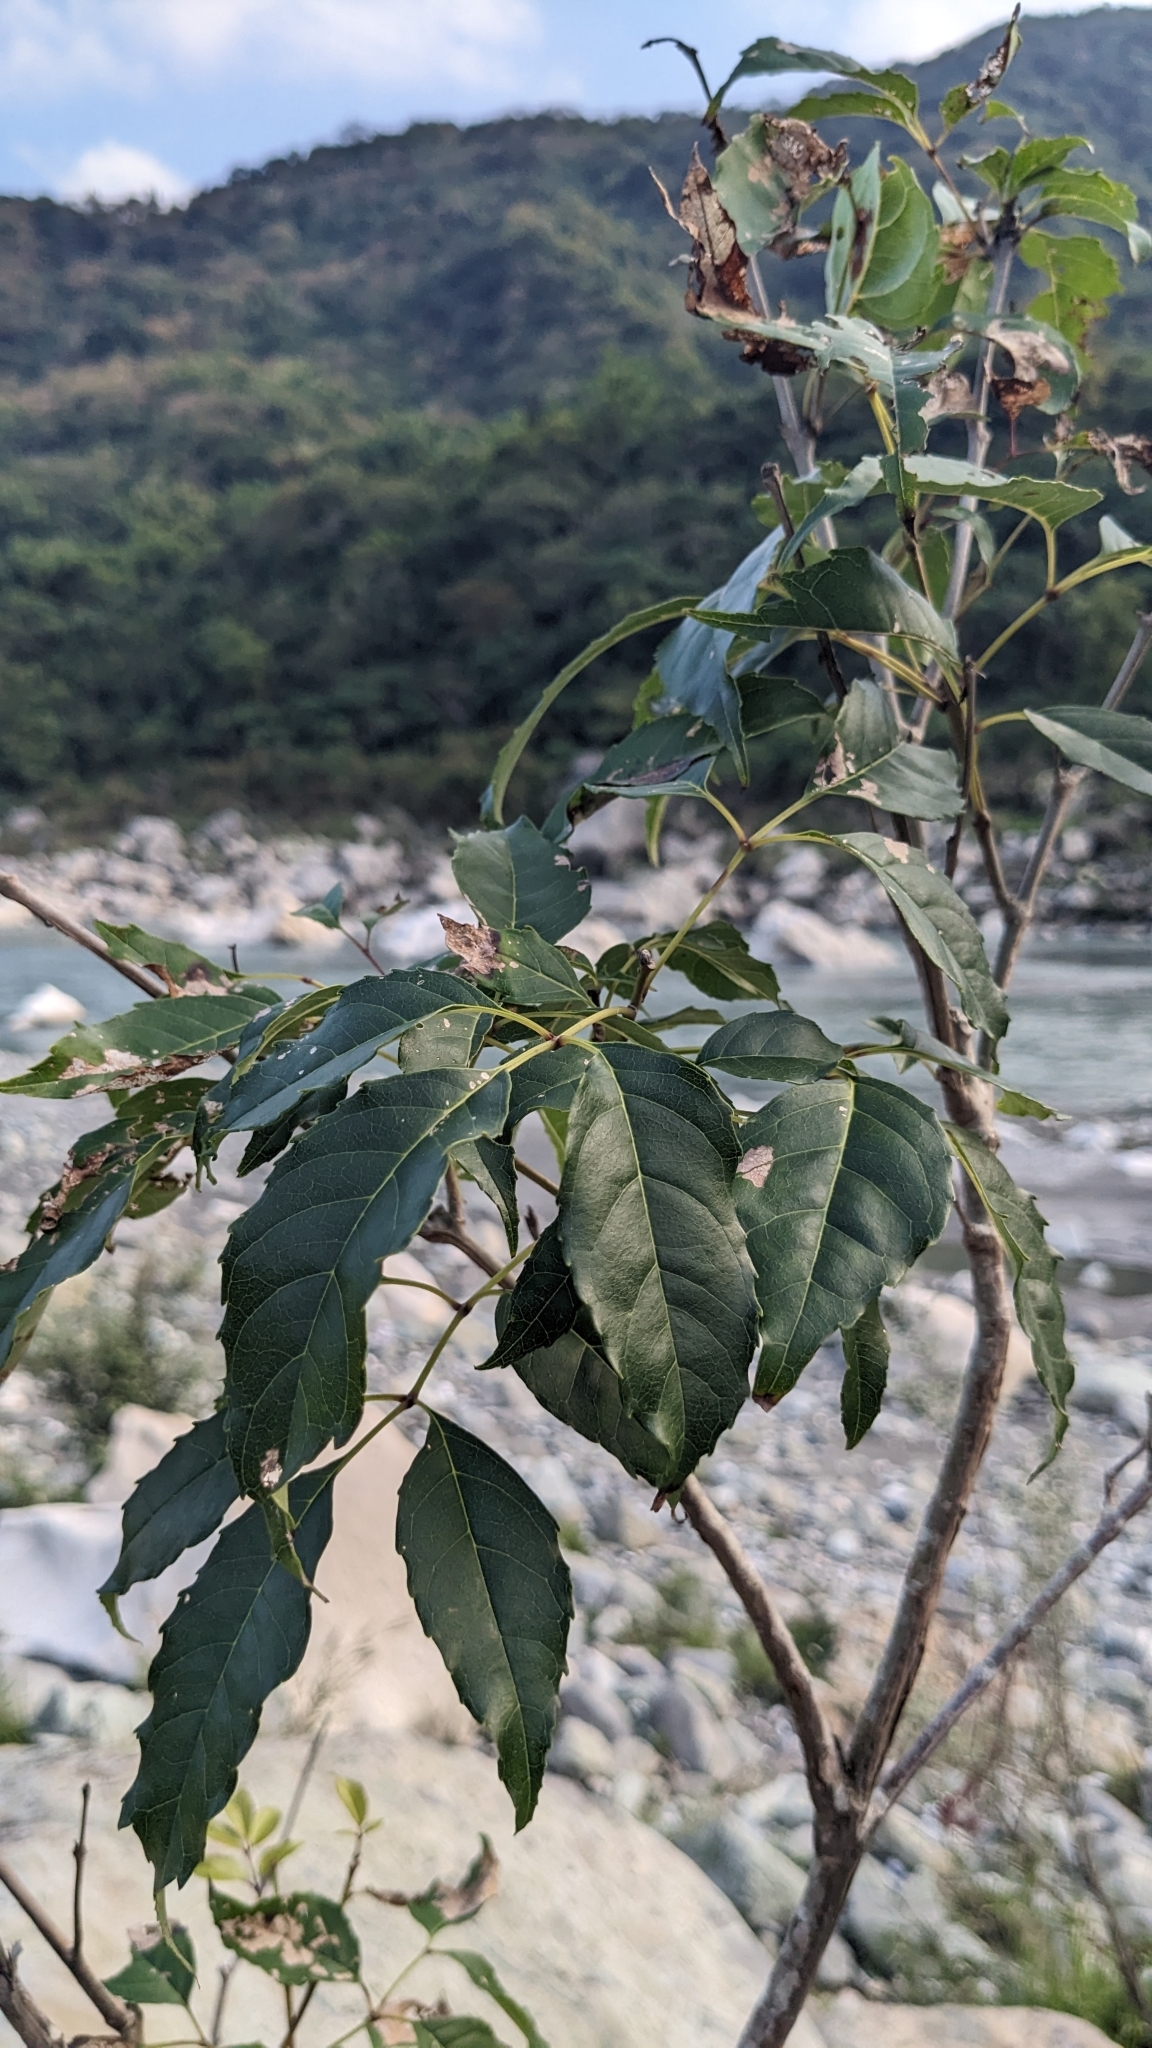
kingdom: Plantae
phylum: Tracheophyta
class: Magnoliopsida
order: Lamiales
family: Oleaceae
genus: Fraxinus
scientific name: Fraxinus insularis
